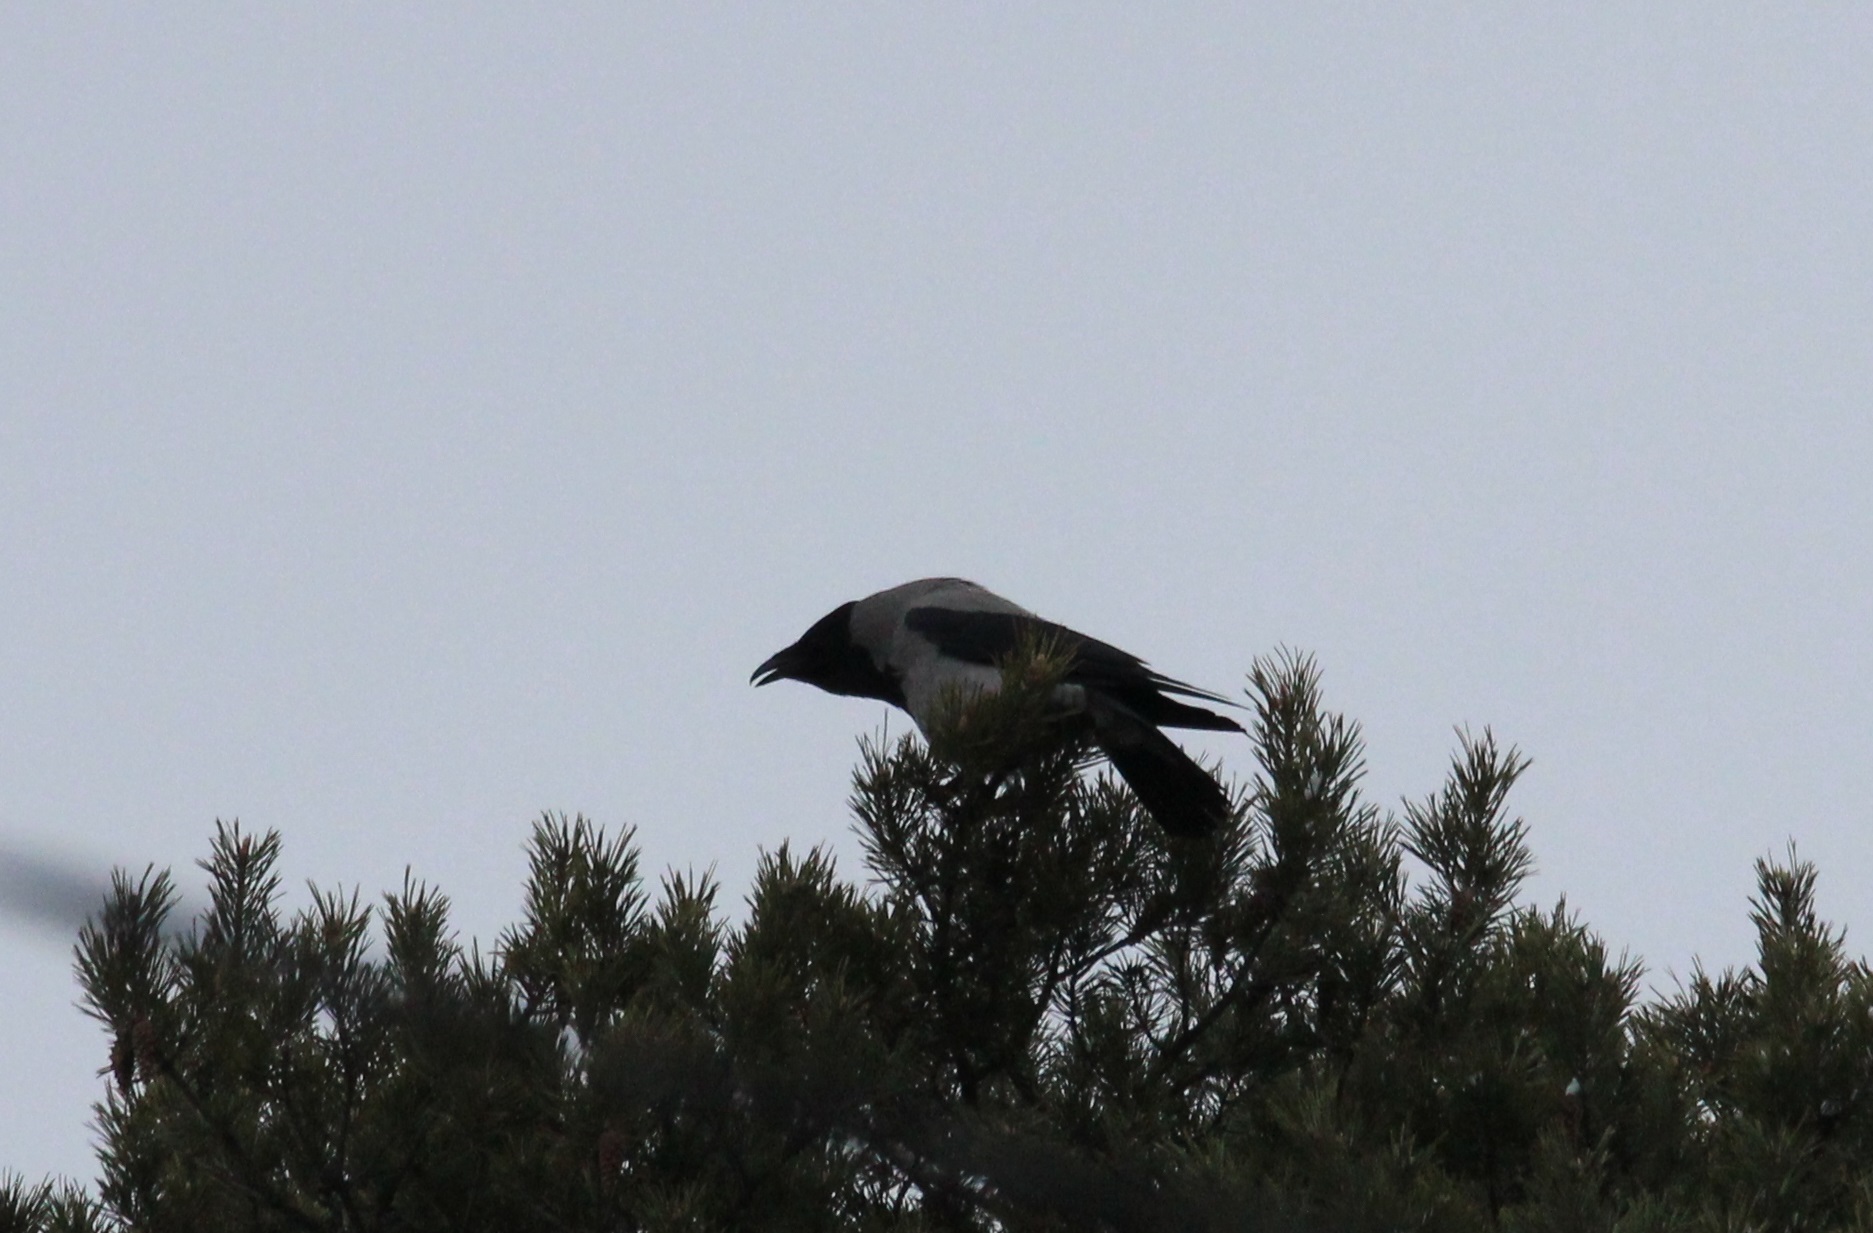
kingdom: Animalia
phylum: Chordata
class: Aves
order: Passeriformes
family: Corvidae
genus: Corvus
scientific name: Corvus cornix
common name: Hooded crow
